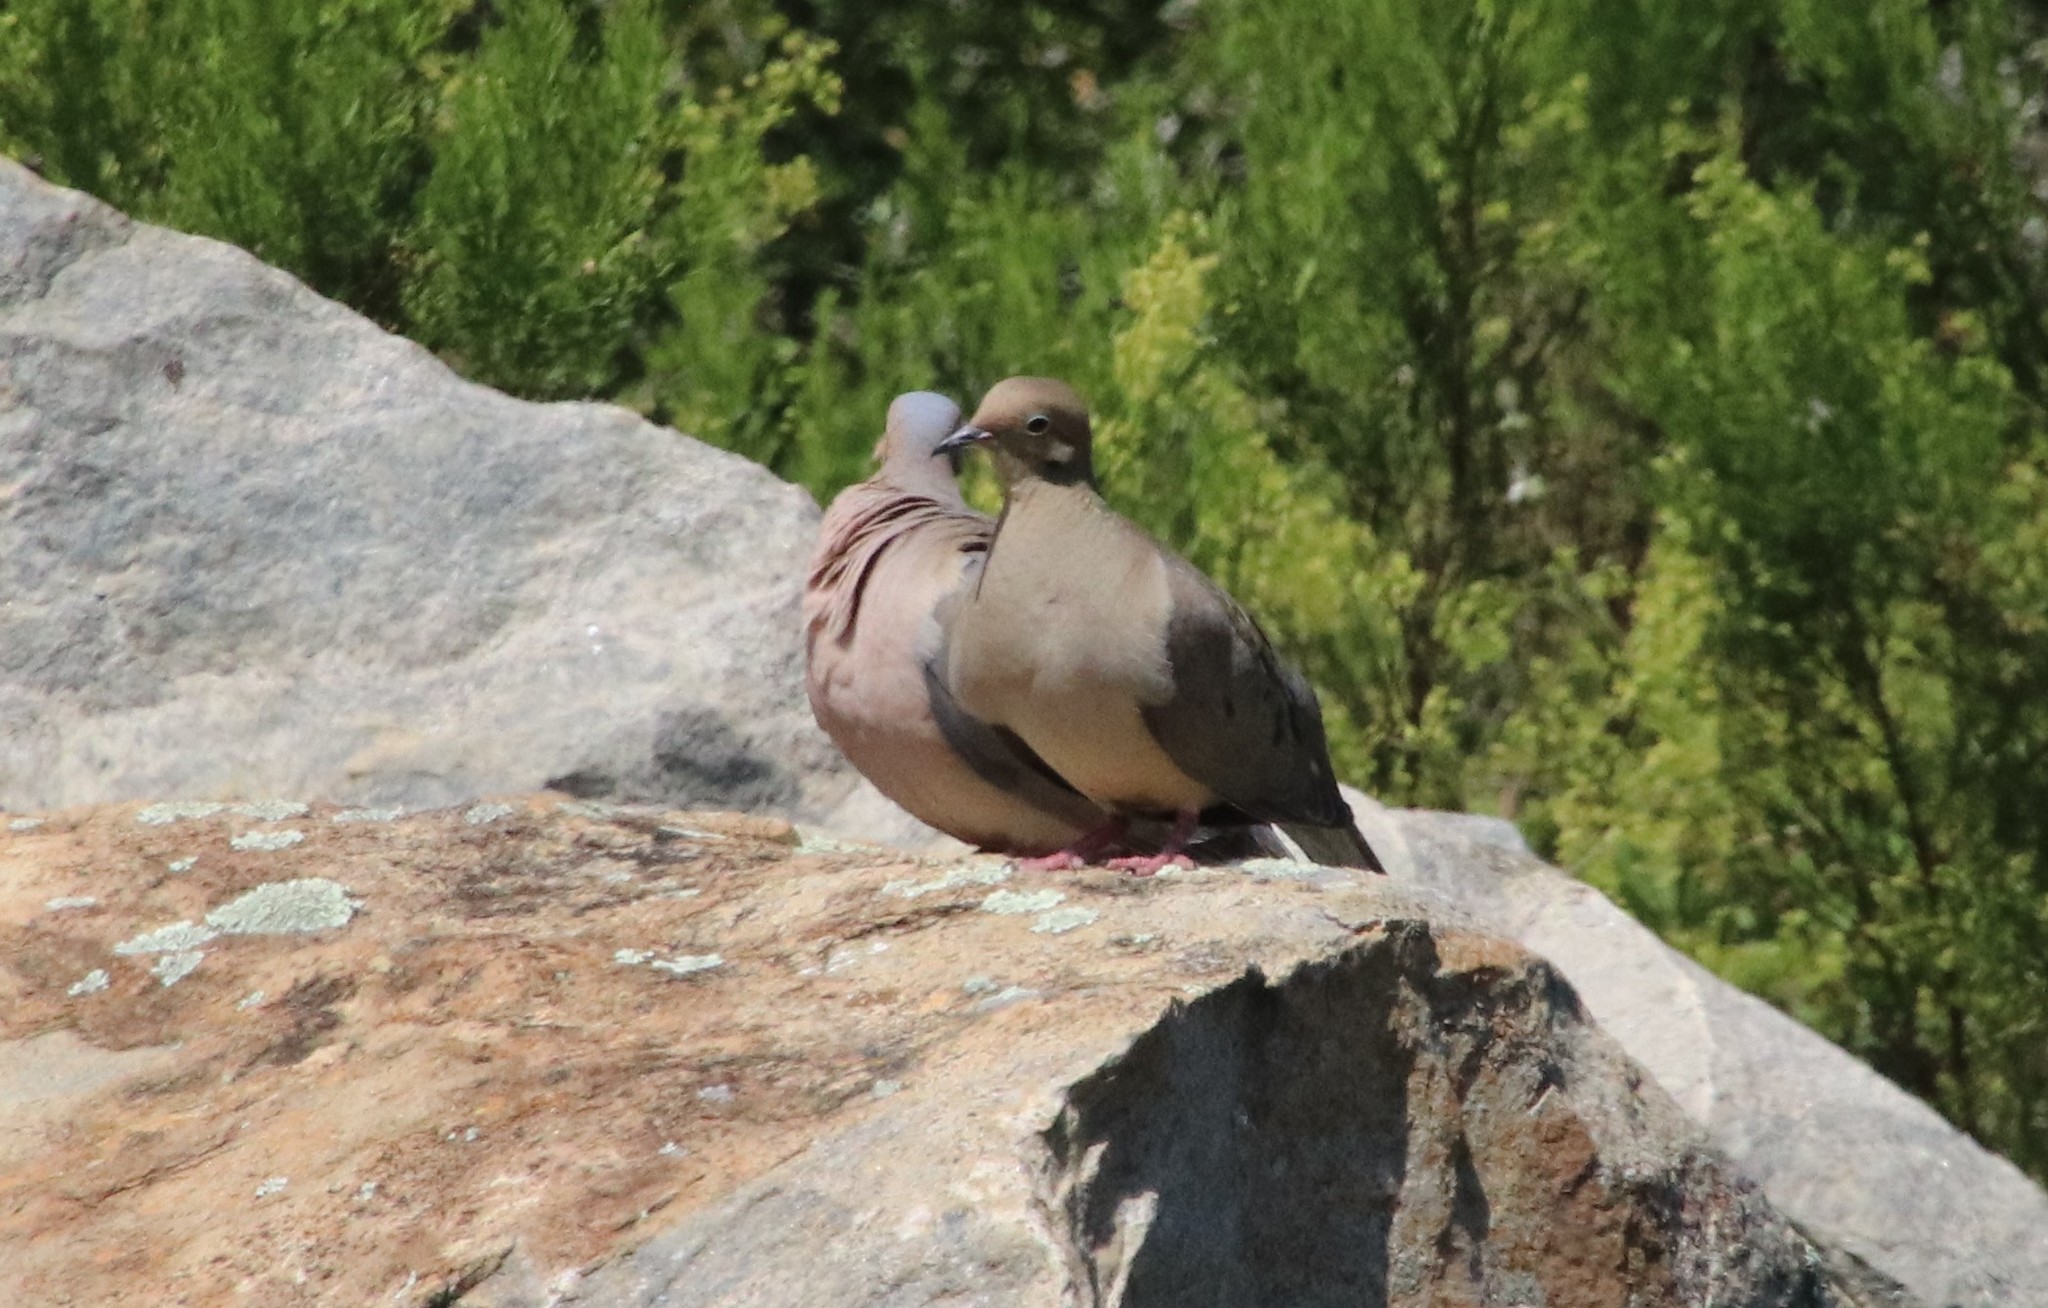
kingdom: Animalia
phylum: Chordata
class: Aves
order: Columbiformes
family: Columbidae
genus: Zenaida
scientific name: Zenaida macroura
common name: Mourning dove
